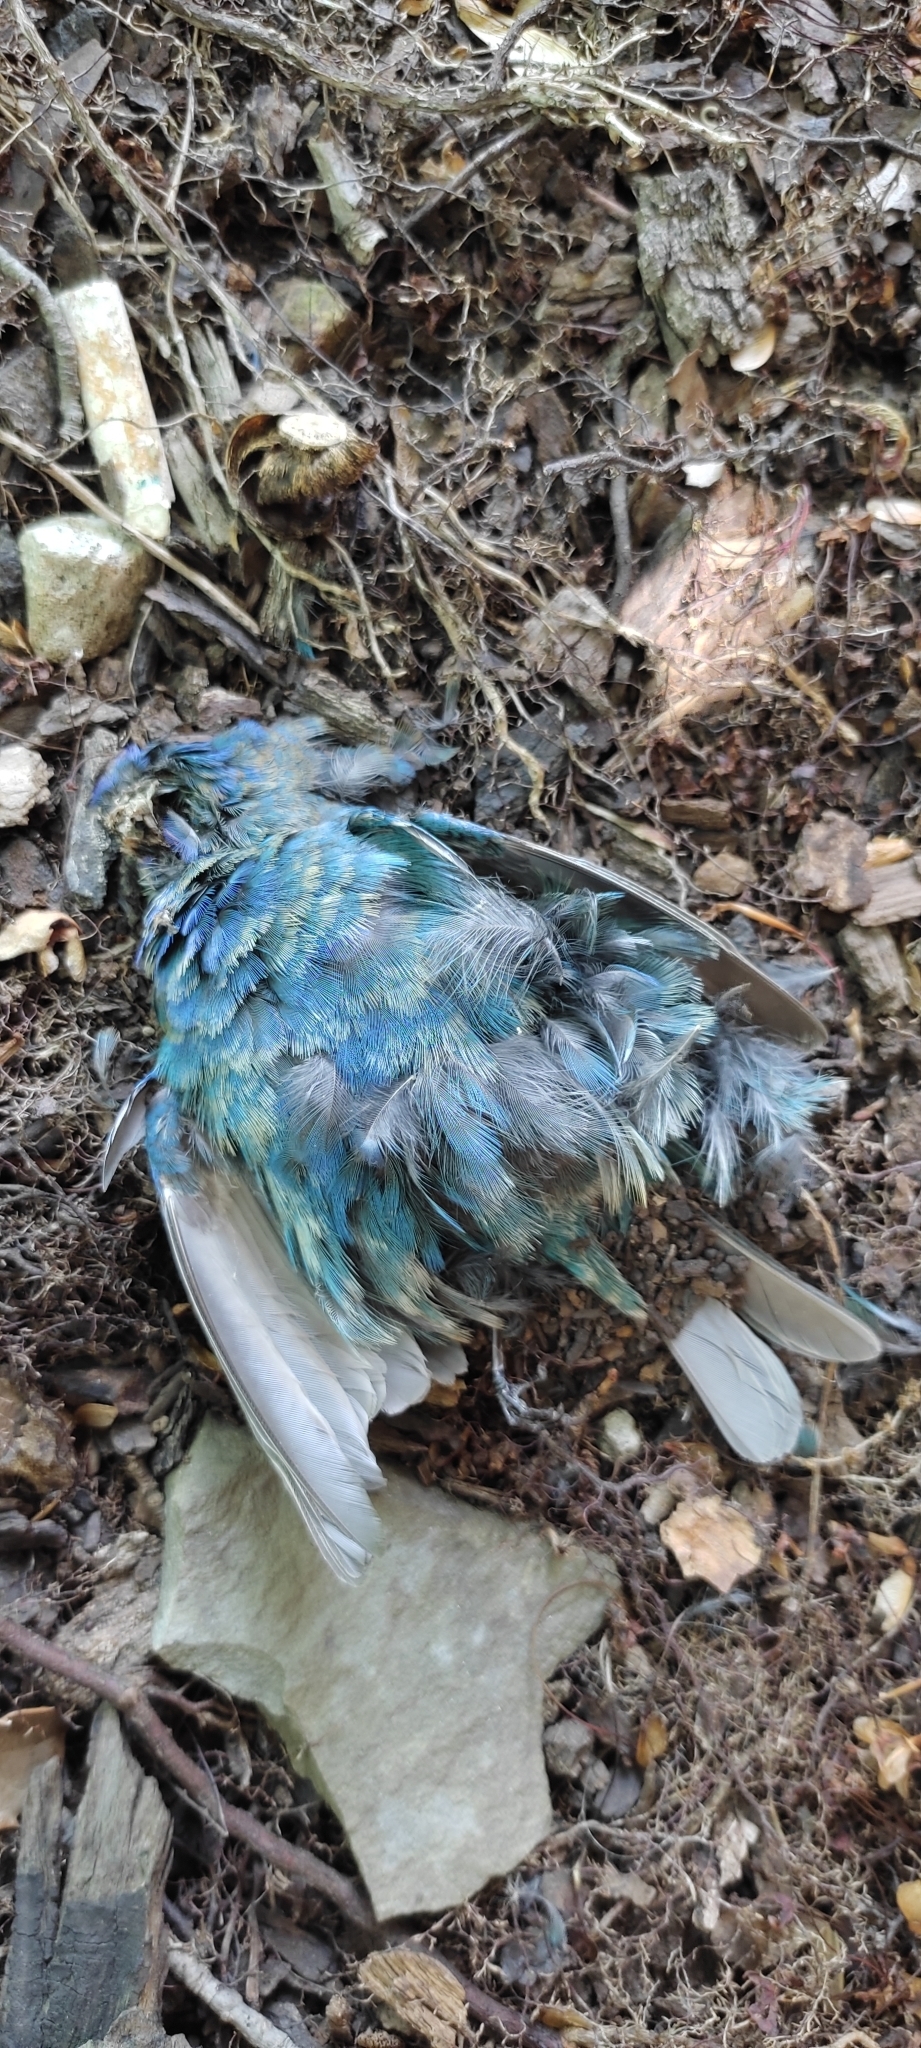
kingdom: Animalia
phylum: Chordata
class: Aves
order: Passeriformes
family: Cardinalidae
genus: Passerina
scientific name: Passerina cyanea
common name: Indigo bunting
